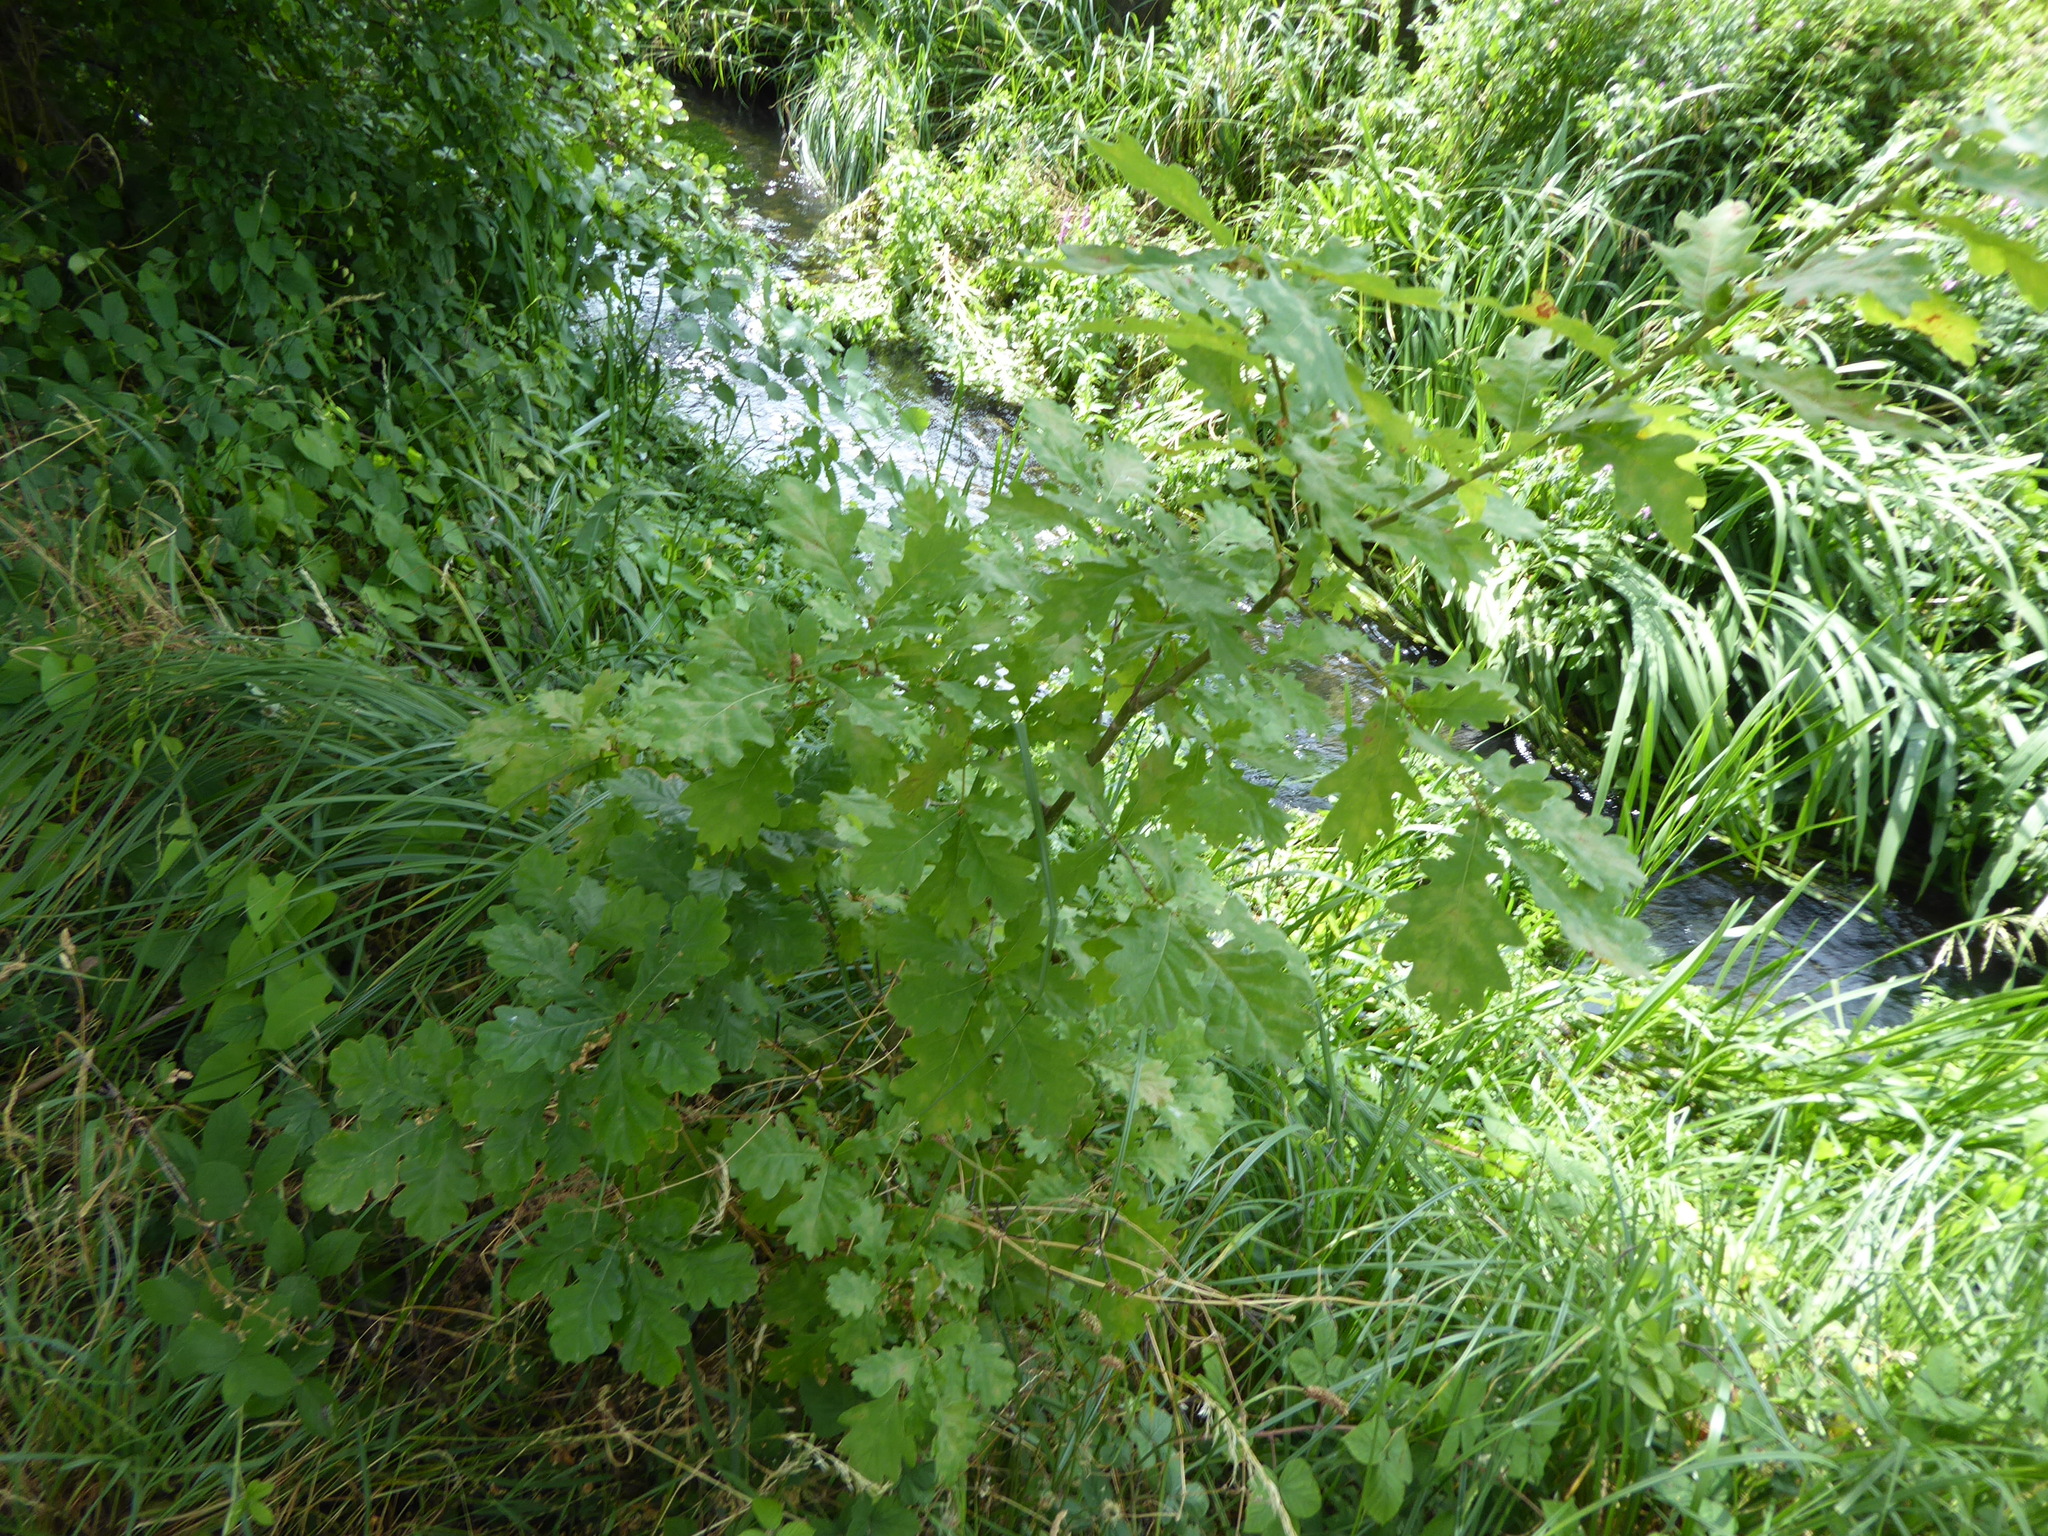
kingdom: Plantae
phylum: Tracheophyta
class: Magnoliopsida
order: Fagales
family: Fagaceae
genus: Quercus
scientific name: Quercus robur
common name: Pedunculate oak
